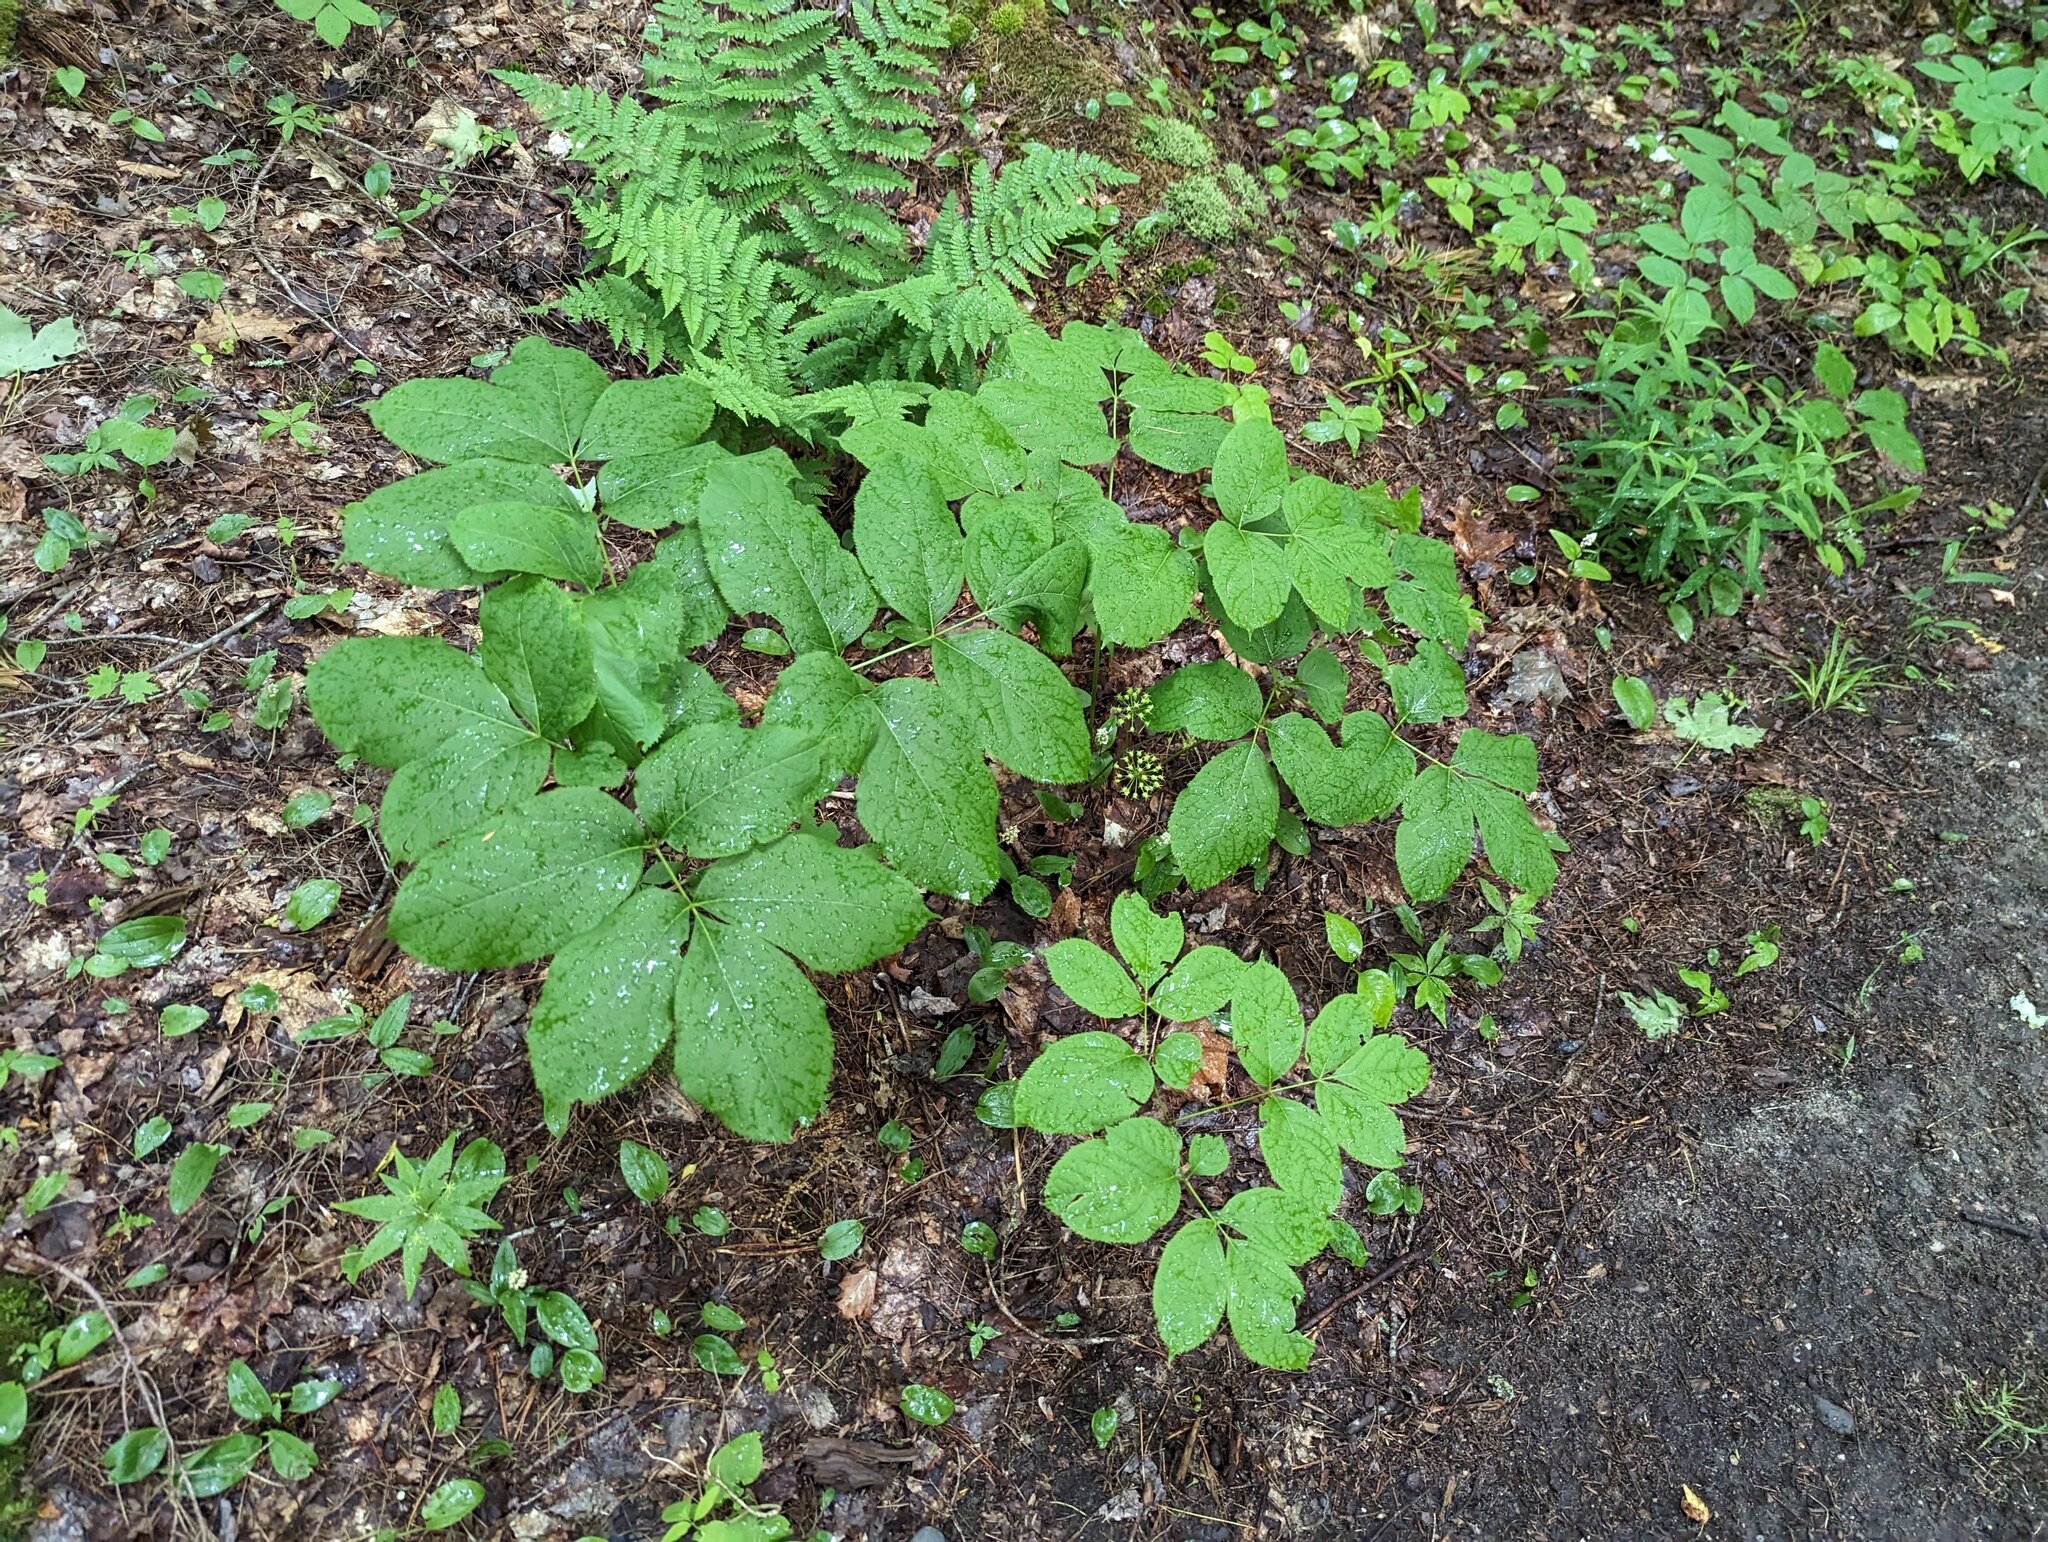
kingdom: Plantae
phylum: Tracheophyta
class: Magnoliopsida
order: Apiales
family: Araliaceae
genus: Aralia
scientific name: Aralia nudicaulis
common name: Wild sarsaparilla
